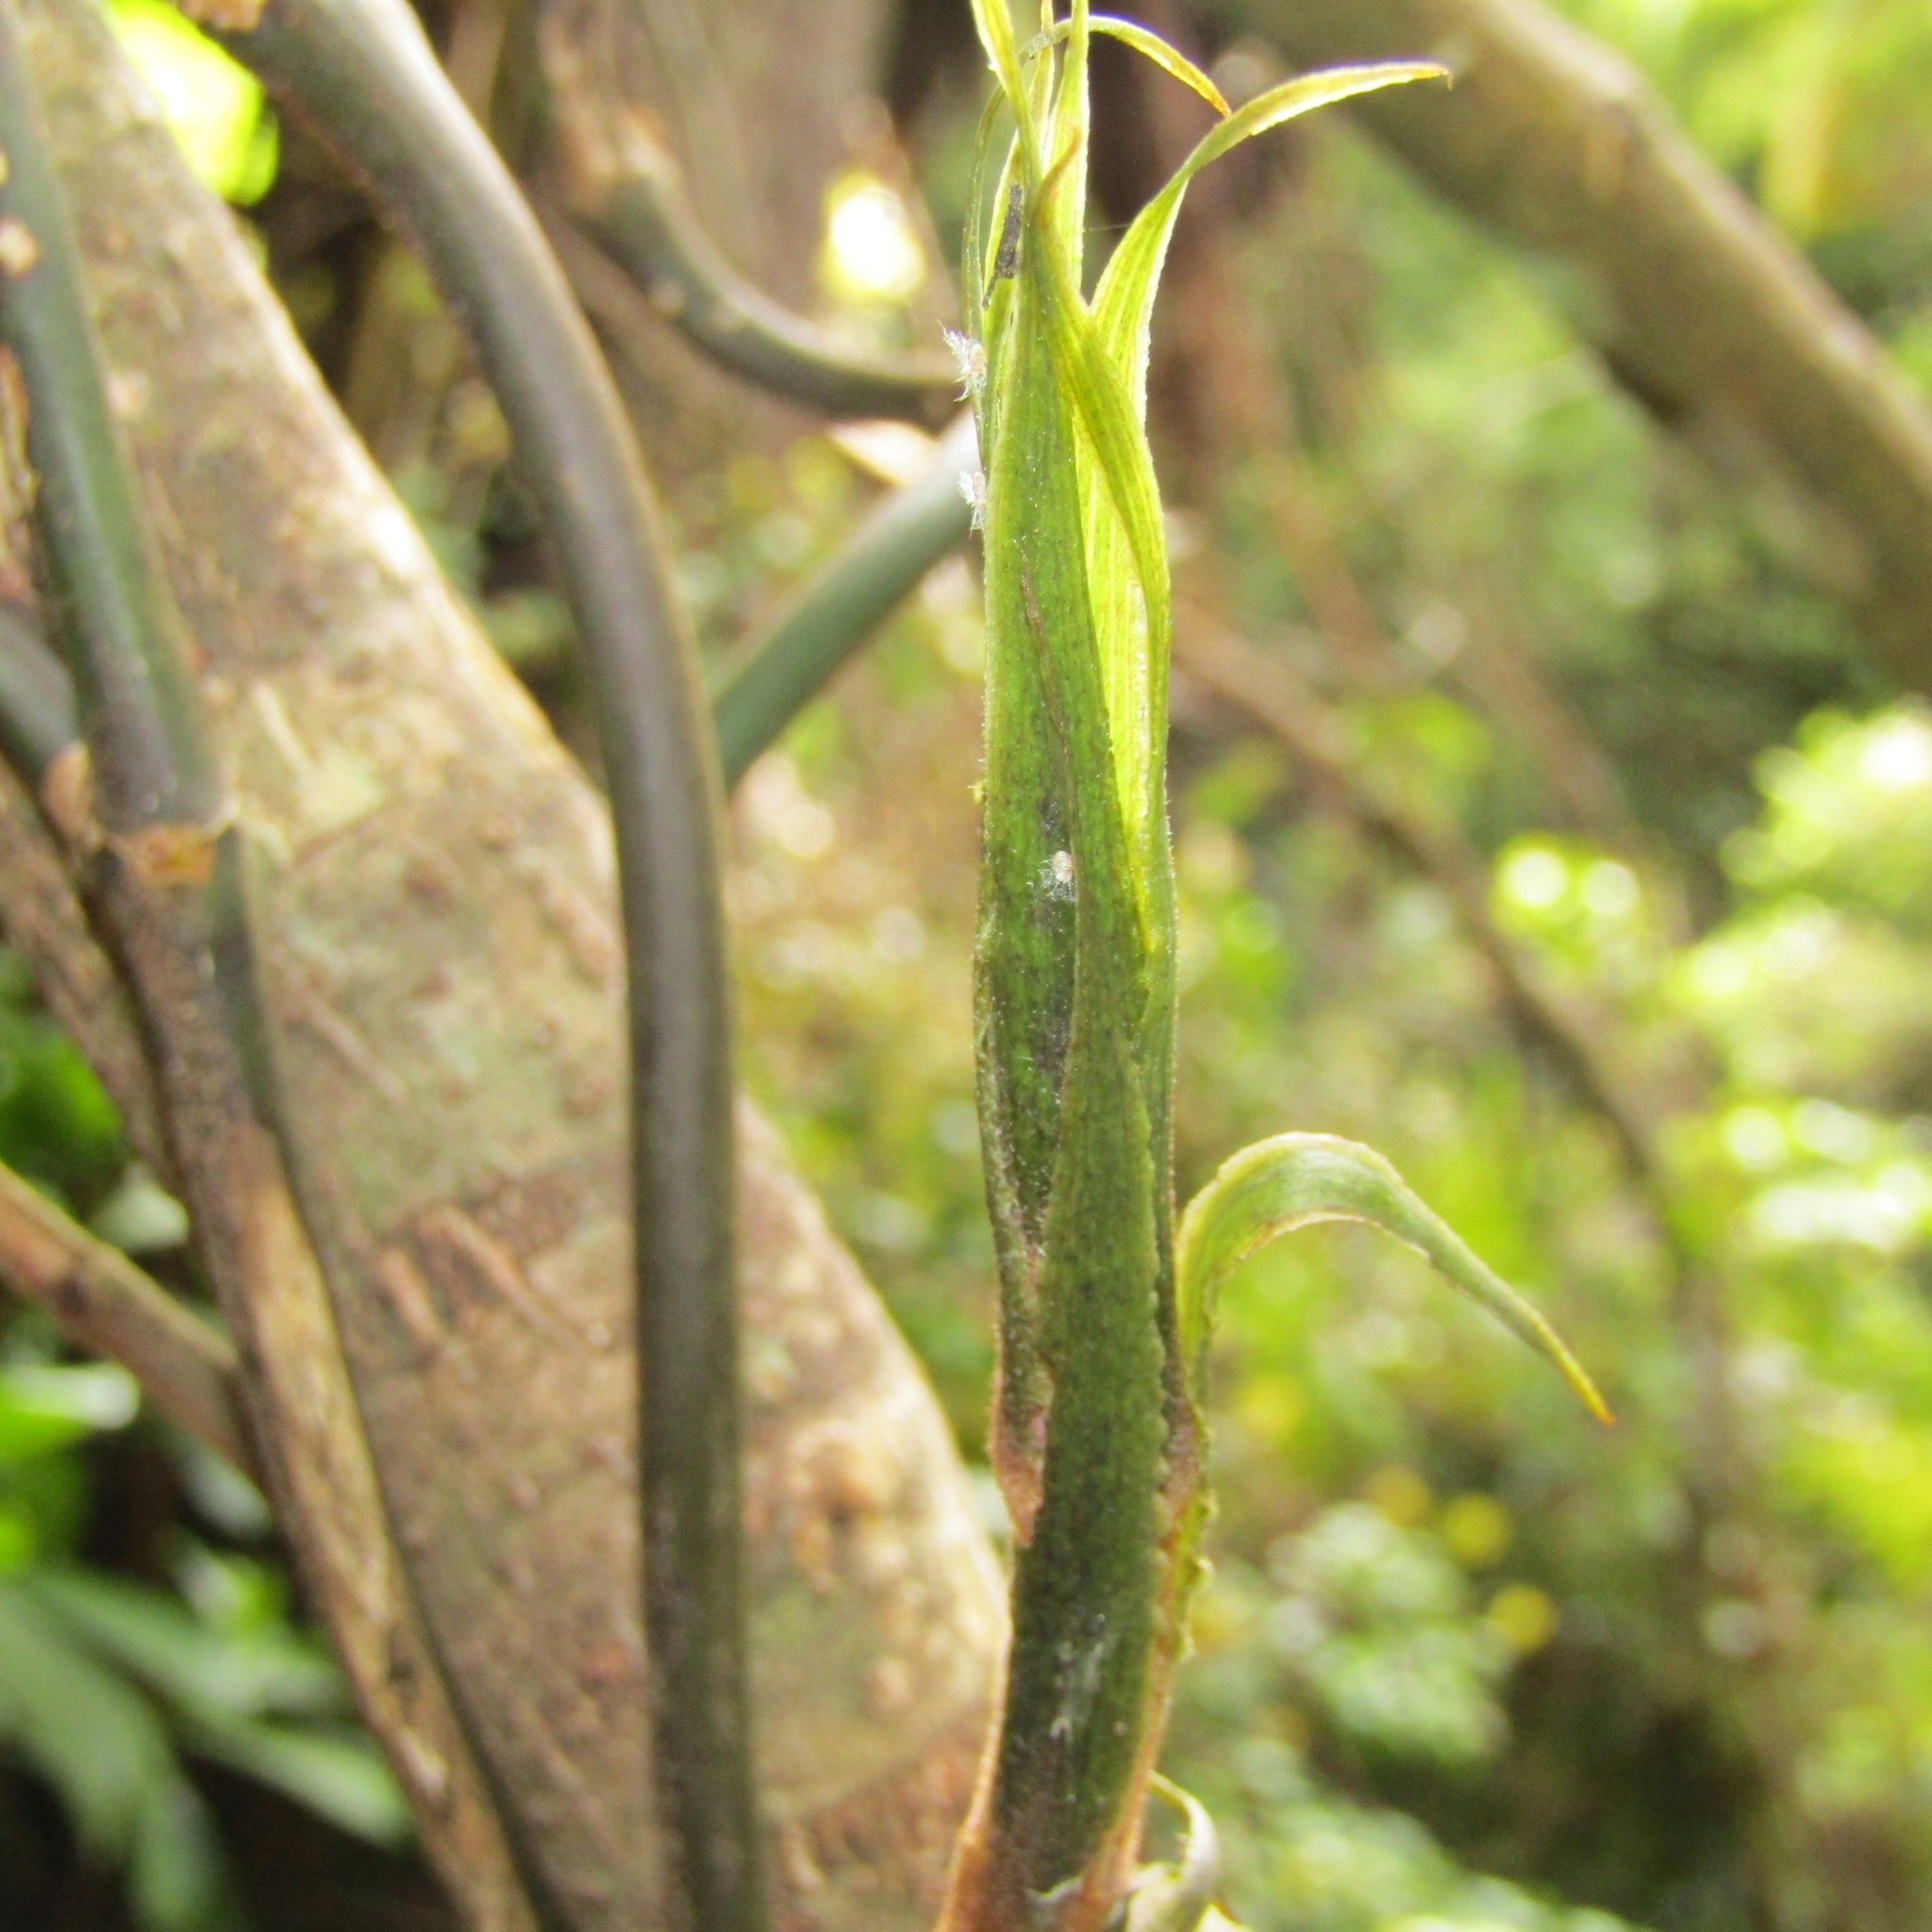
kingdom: Plantae
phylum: Tracheophyta
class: Liliopsida
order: Liliales
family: Ripogonaceae
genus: Ripogonum
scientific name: Ripogonum scandens
